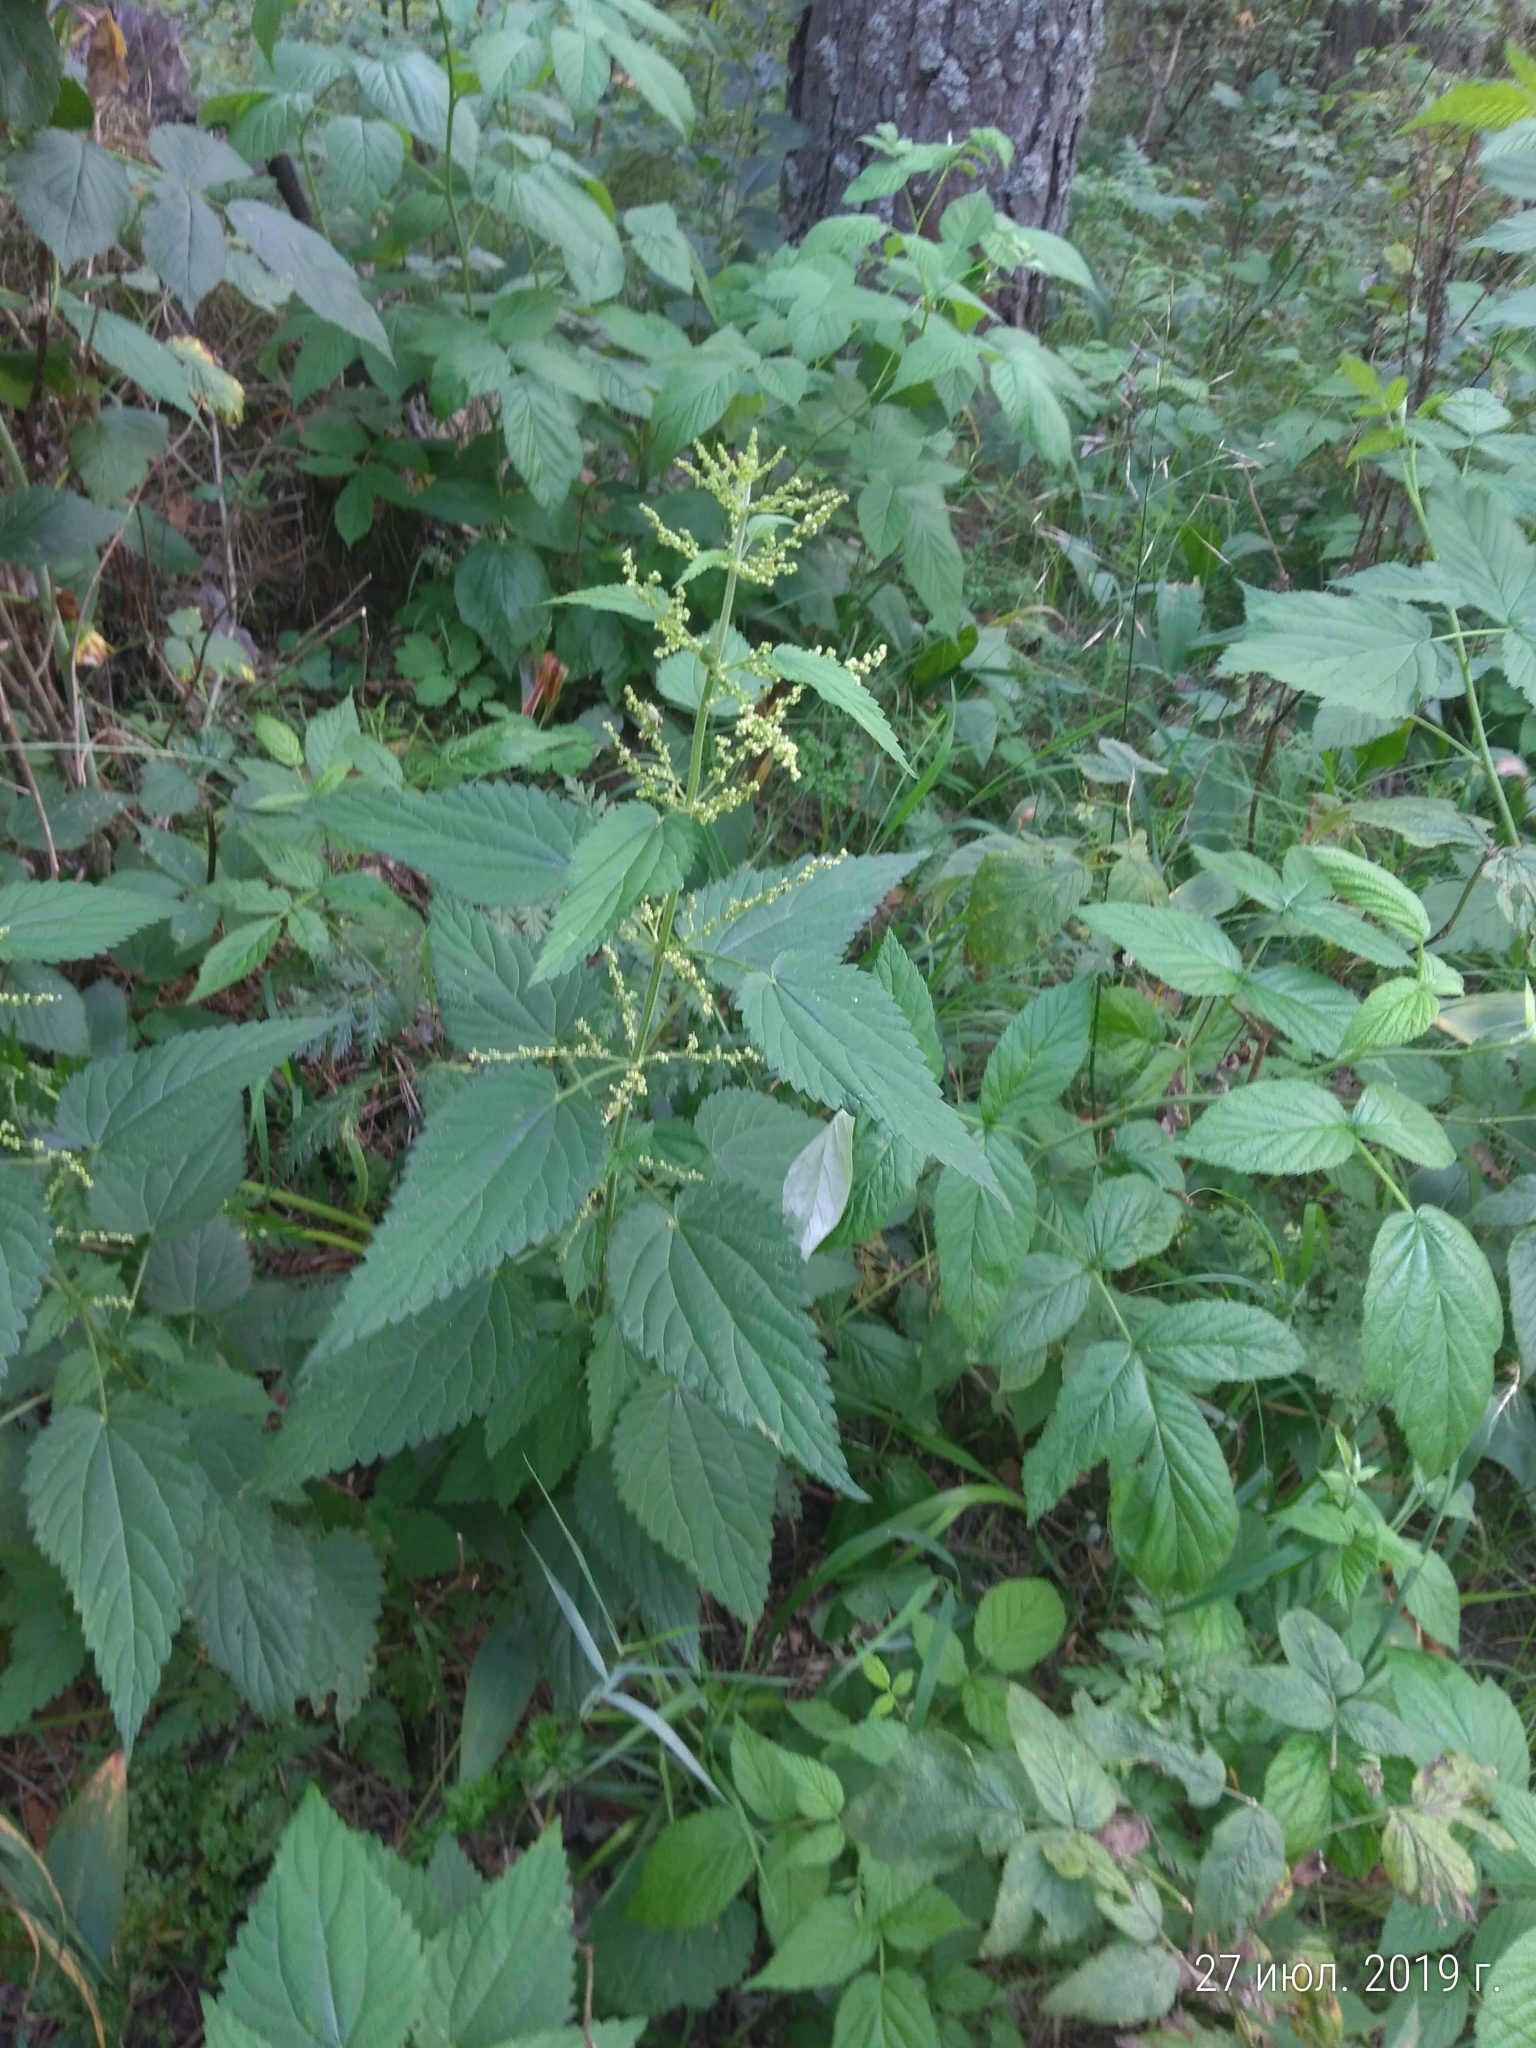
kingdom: Plantae
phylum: Tracheophyta
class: Magnoliopsida
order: Rosales
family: Urticaceae
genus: Urtica
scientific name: Urtica dioica
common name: Common nettle
